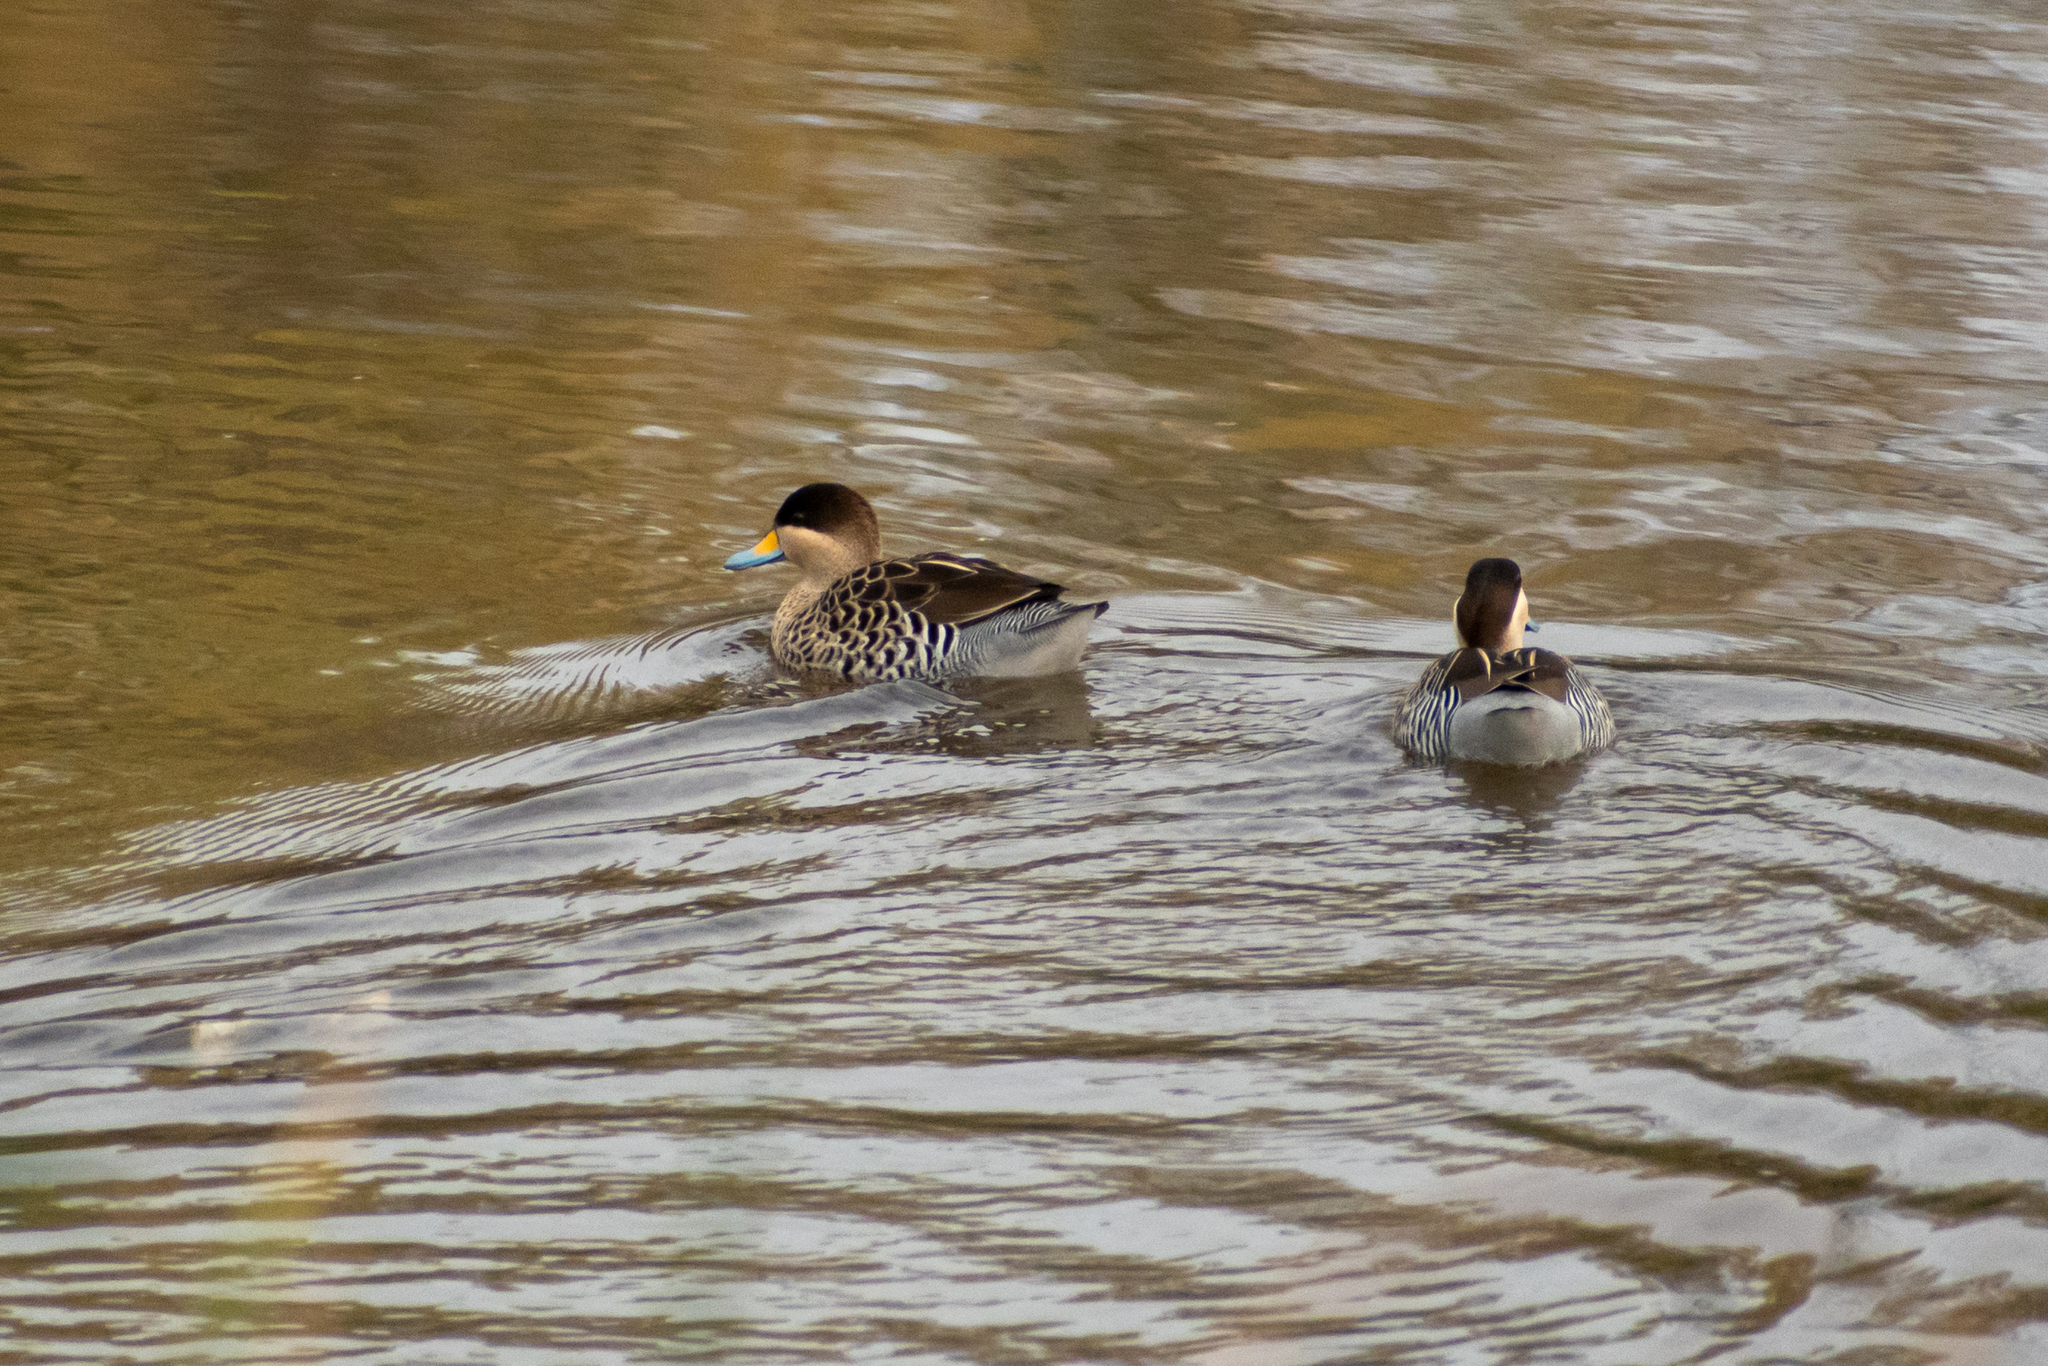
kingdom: Animalia
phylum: Chordata
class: Aves
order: Anseriformes
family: Anatidae
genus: Spatula
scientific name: Spatula versicolor
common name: Silver teal
